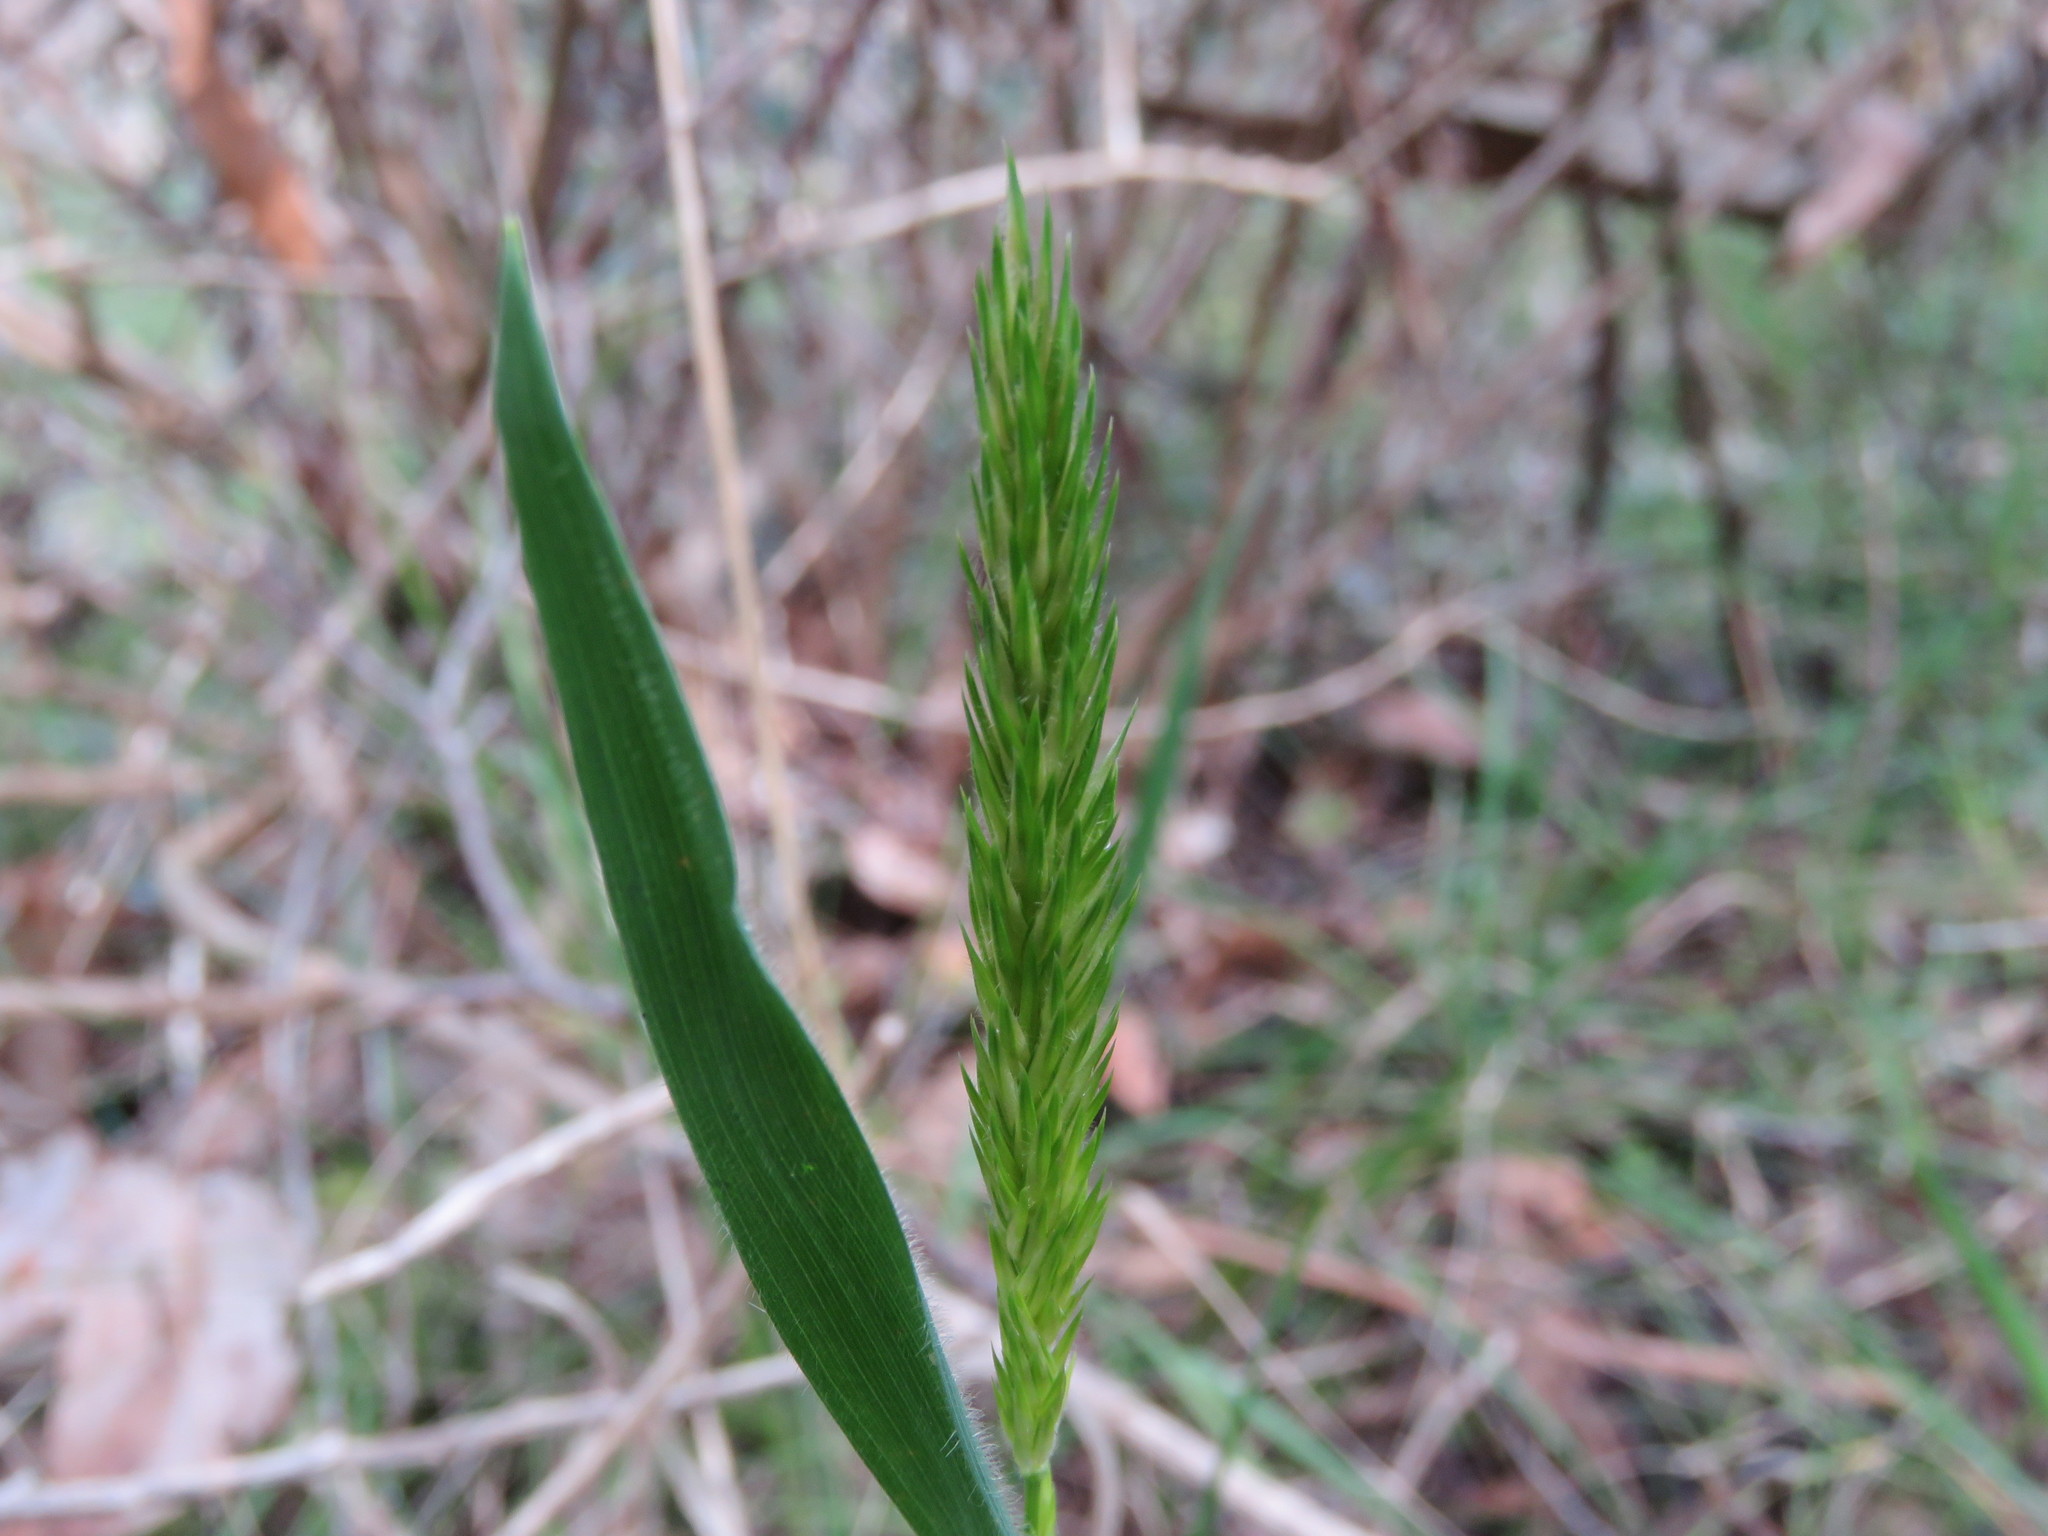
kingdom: Plantae
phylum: Tracheophyta
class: Liliopsida
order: Poales
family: Poaceae
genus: Anthoxanthum
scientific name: Anthoxanthum odoratum
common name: Sweet vernalgrass
